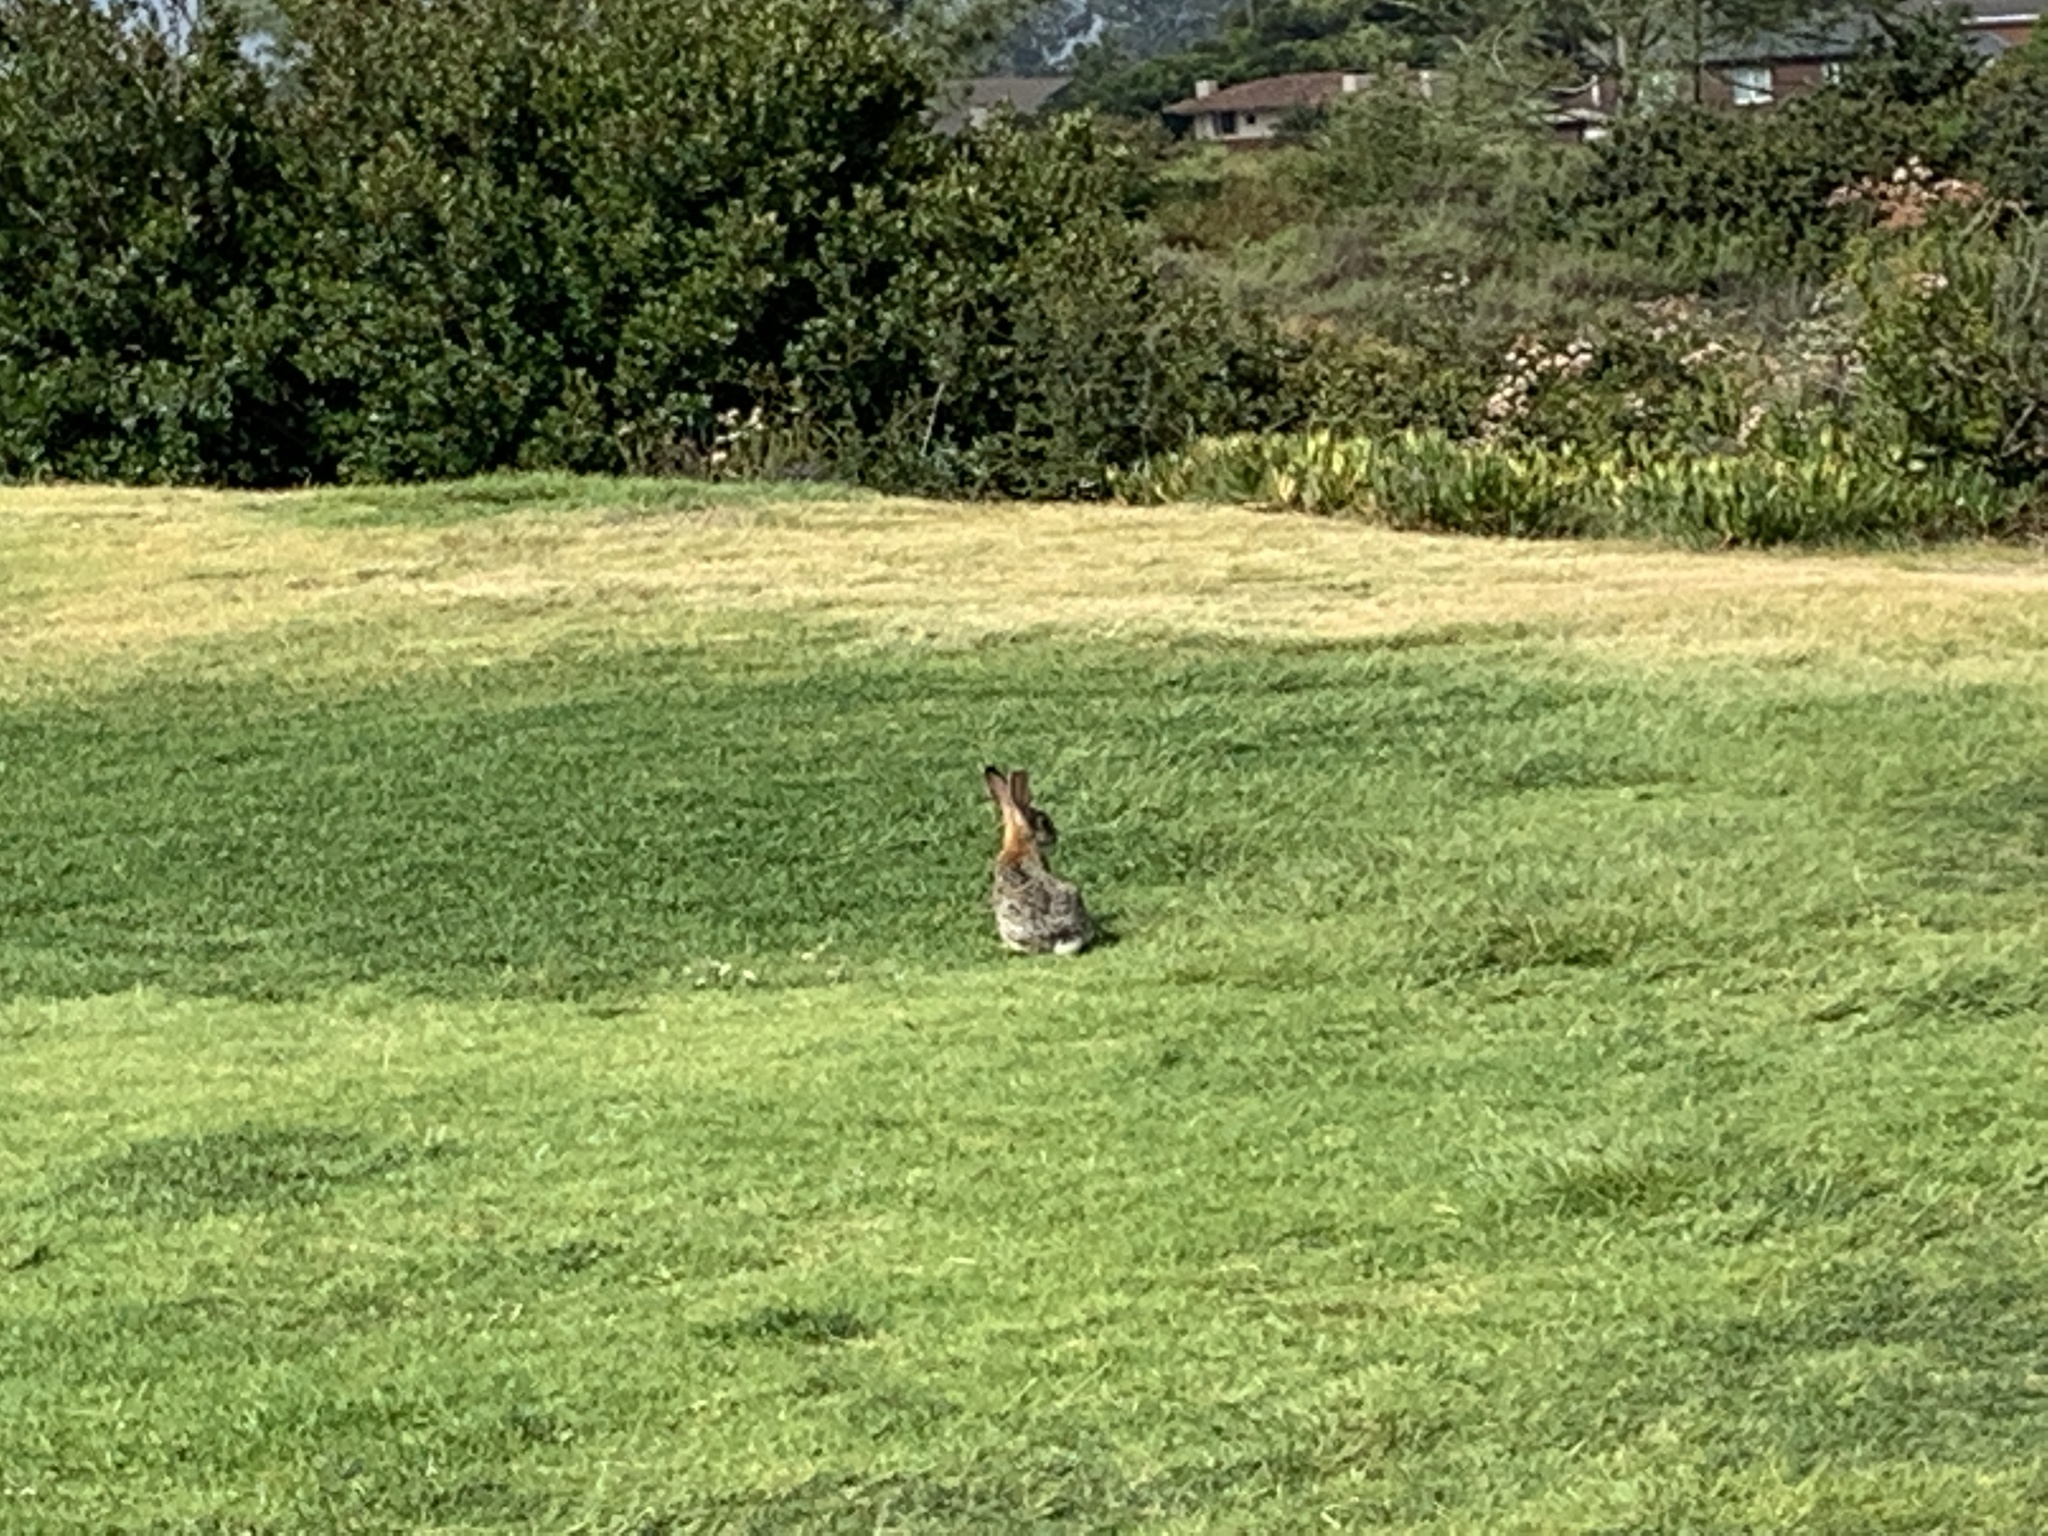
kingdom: Animalia
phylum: Chordata
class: Mammalia
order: Lagomorpha
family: Leporidae
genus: Sylvilagus
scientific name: Sylvilagus audubonii
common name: Desert cottontail
